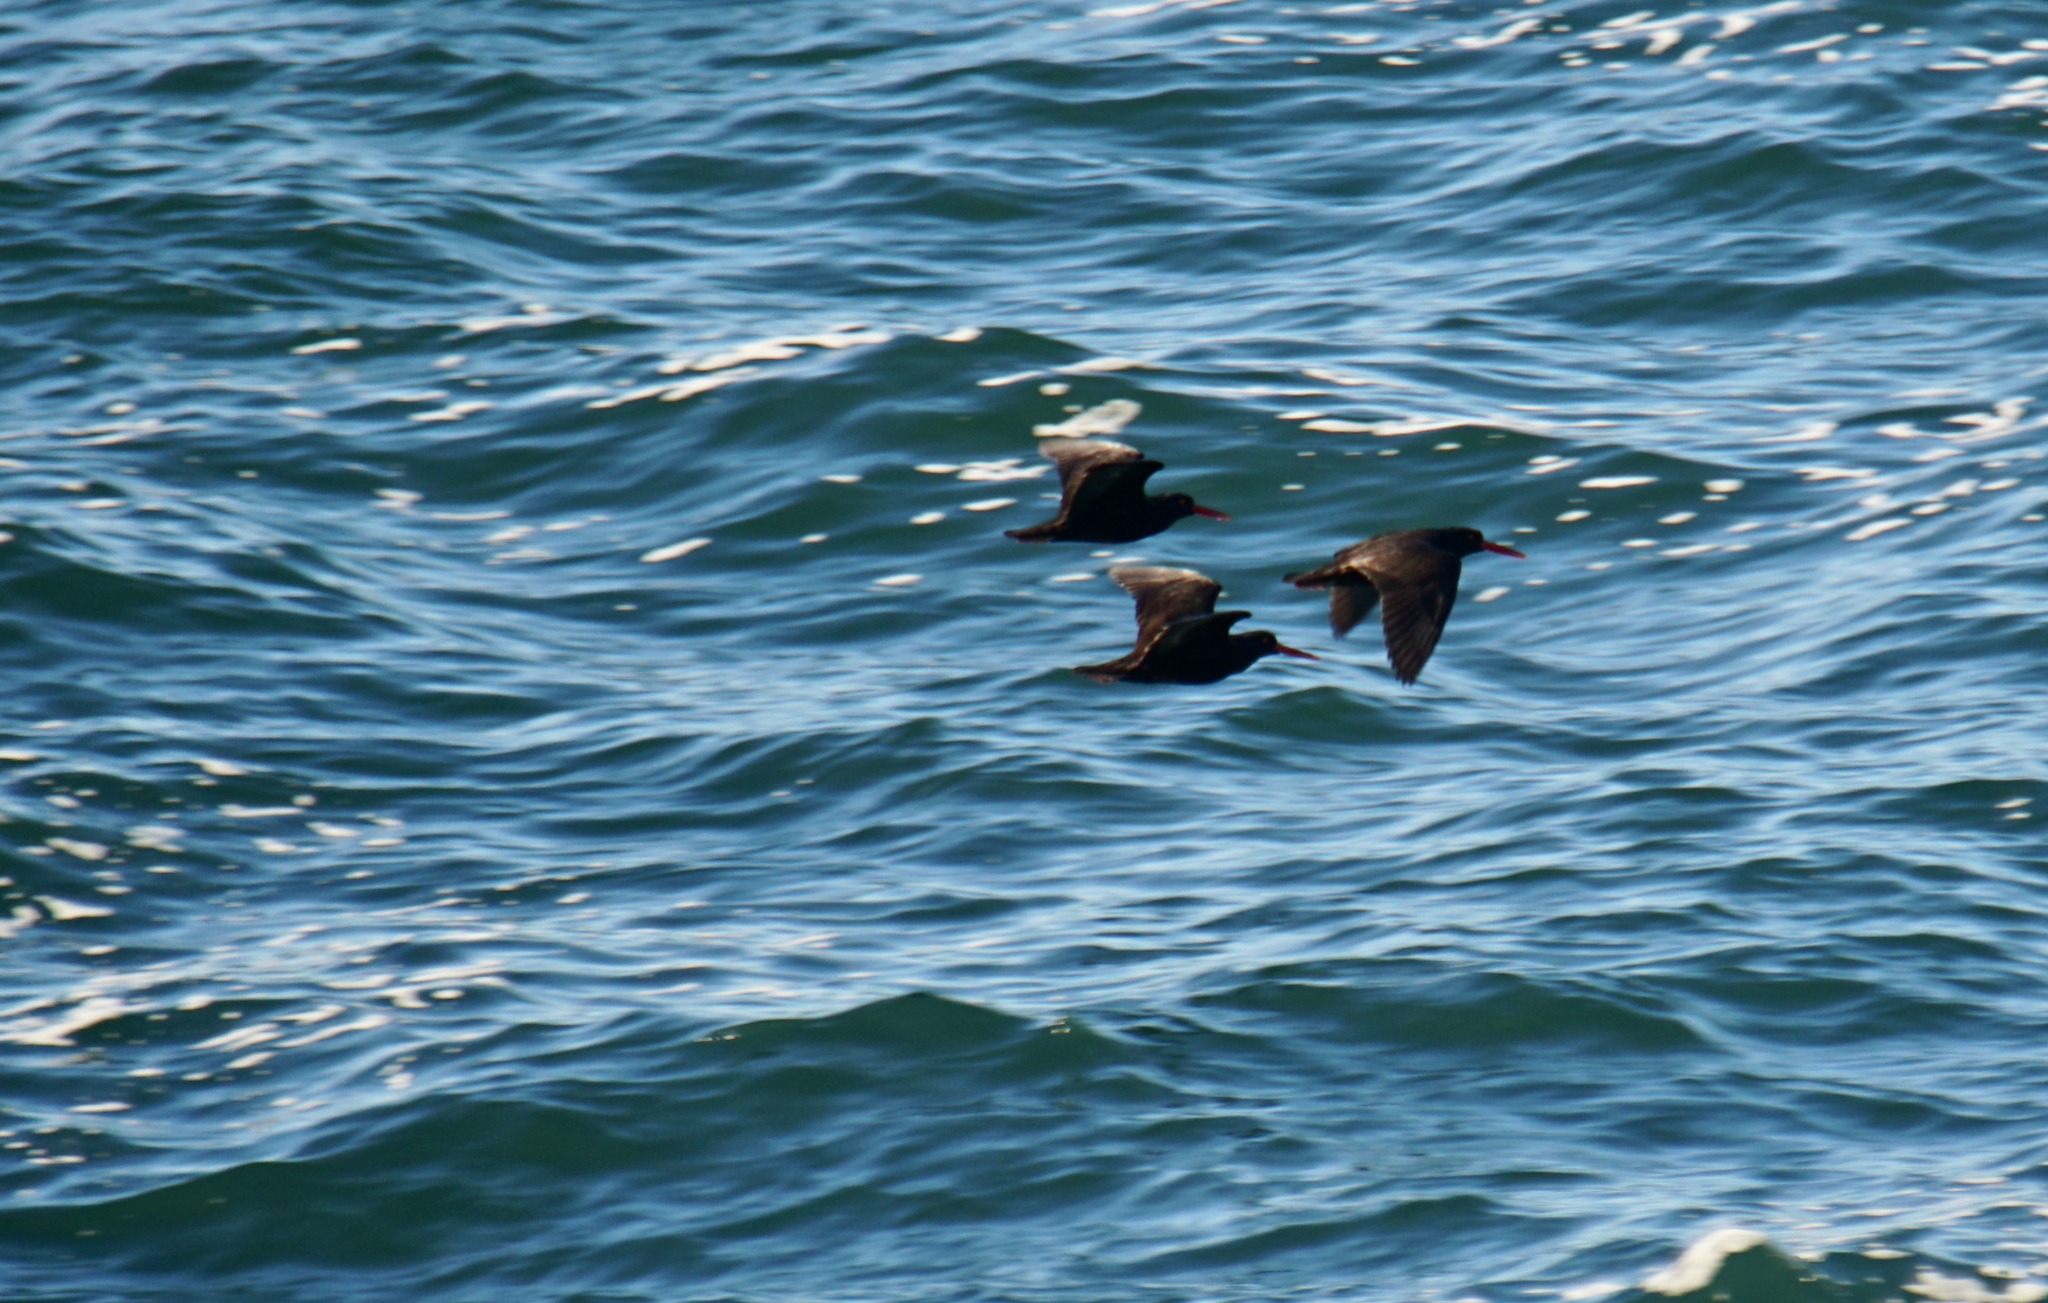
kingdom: Animalia
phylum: Chordata
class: Aves
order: Charadriiformes
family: Haematopodidae
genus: Haematopus
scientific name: Haematopus bachmani
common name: Black oystercatcher
